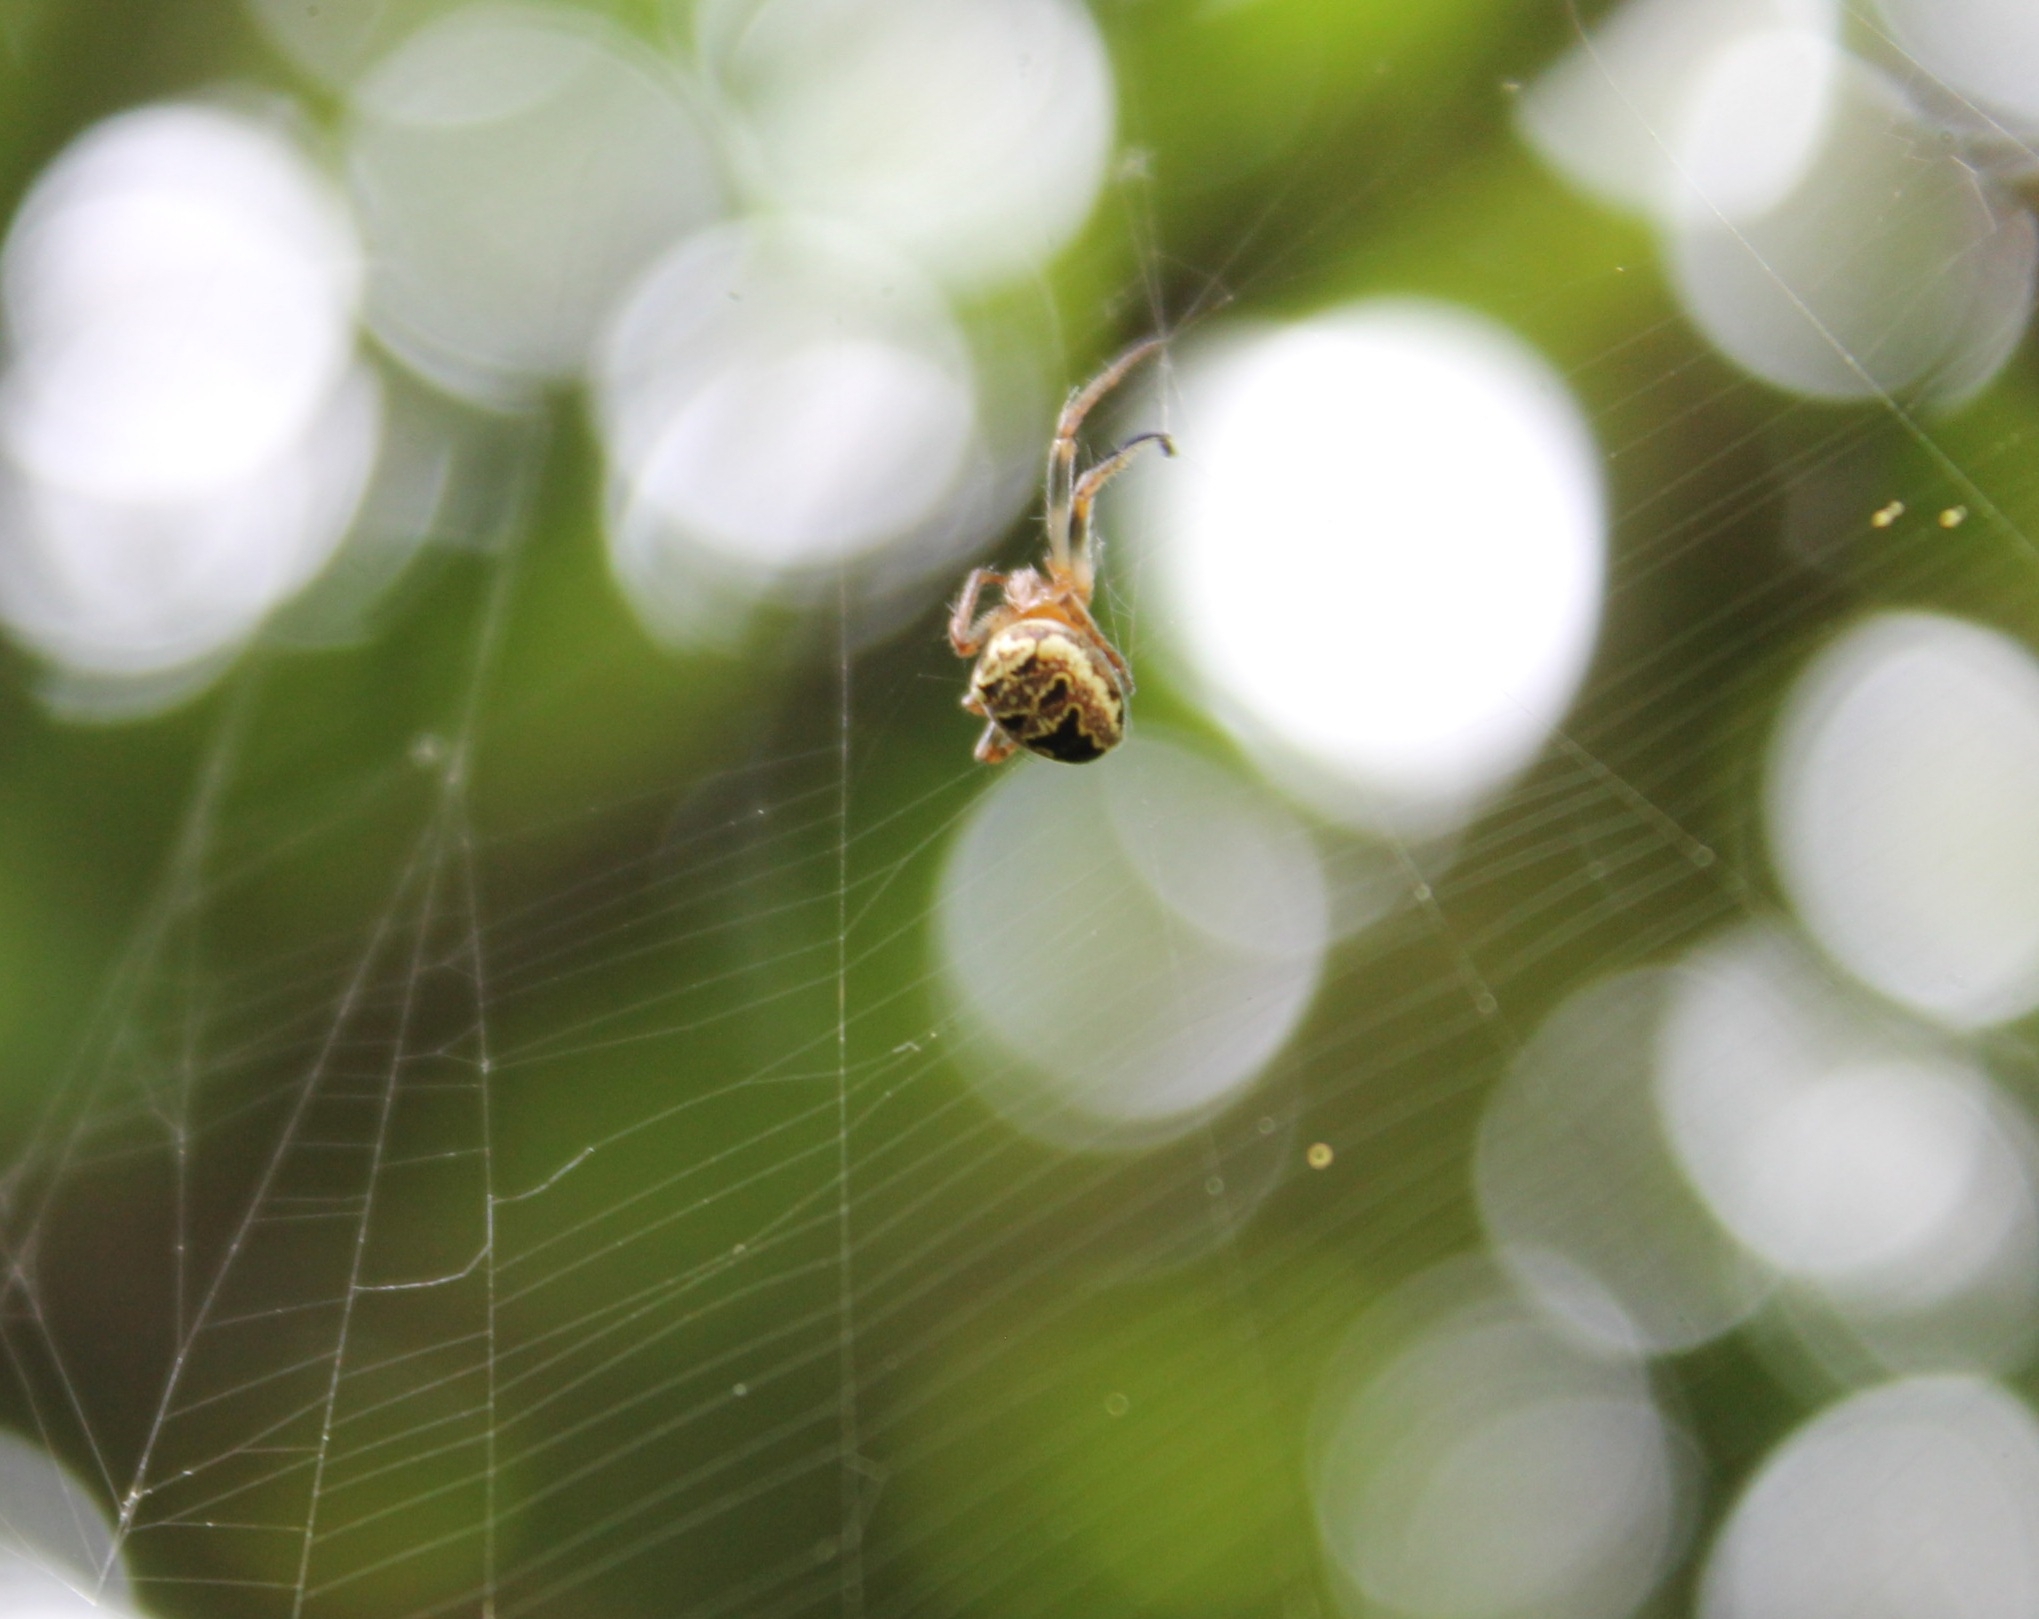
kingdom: Animalia
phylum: Arthropoda
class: Arachnida
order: Araneae
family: Araneidae
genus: Zilla
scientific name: Zilla diodia
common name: Zilla diodia
